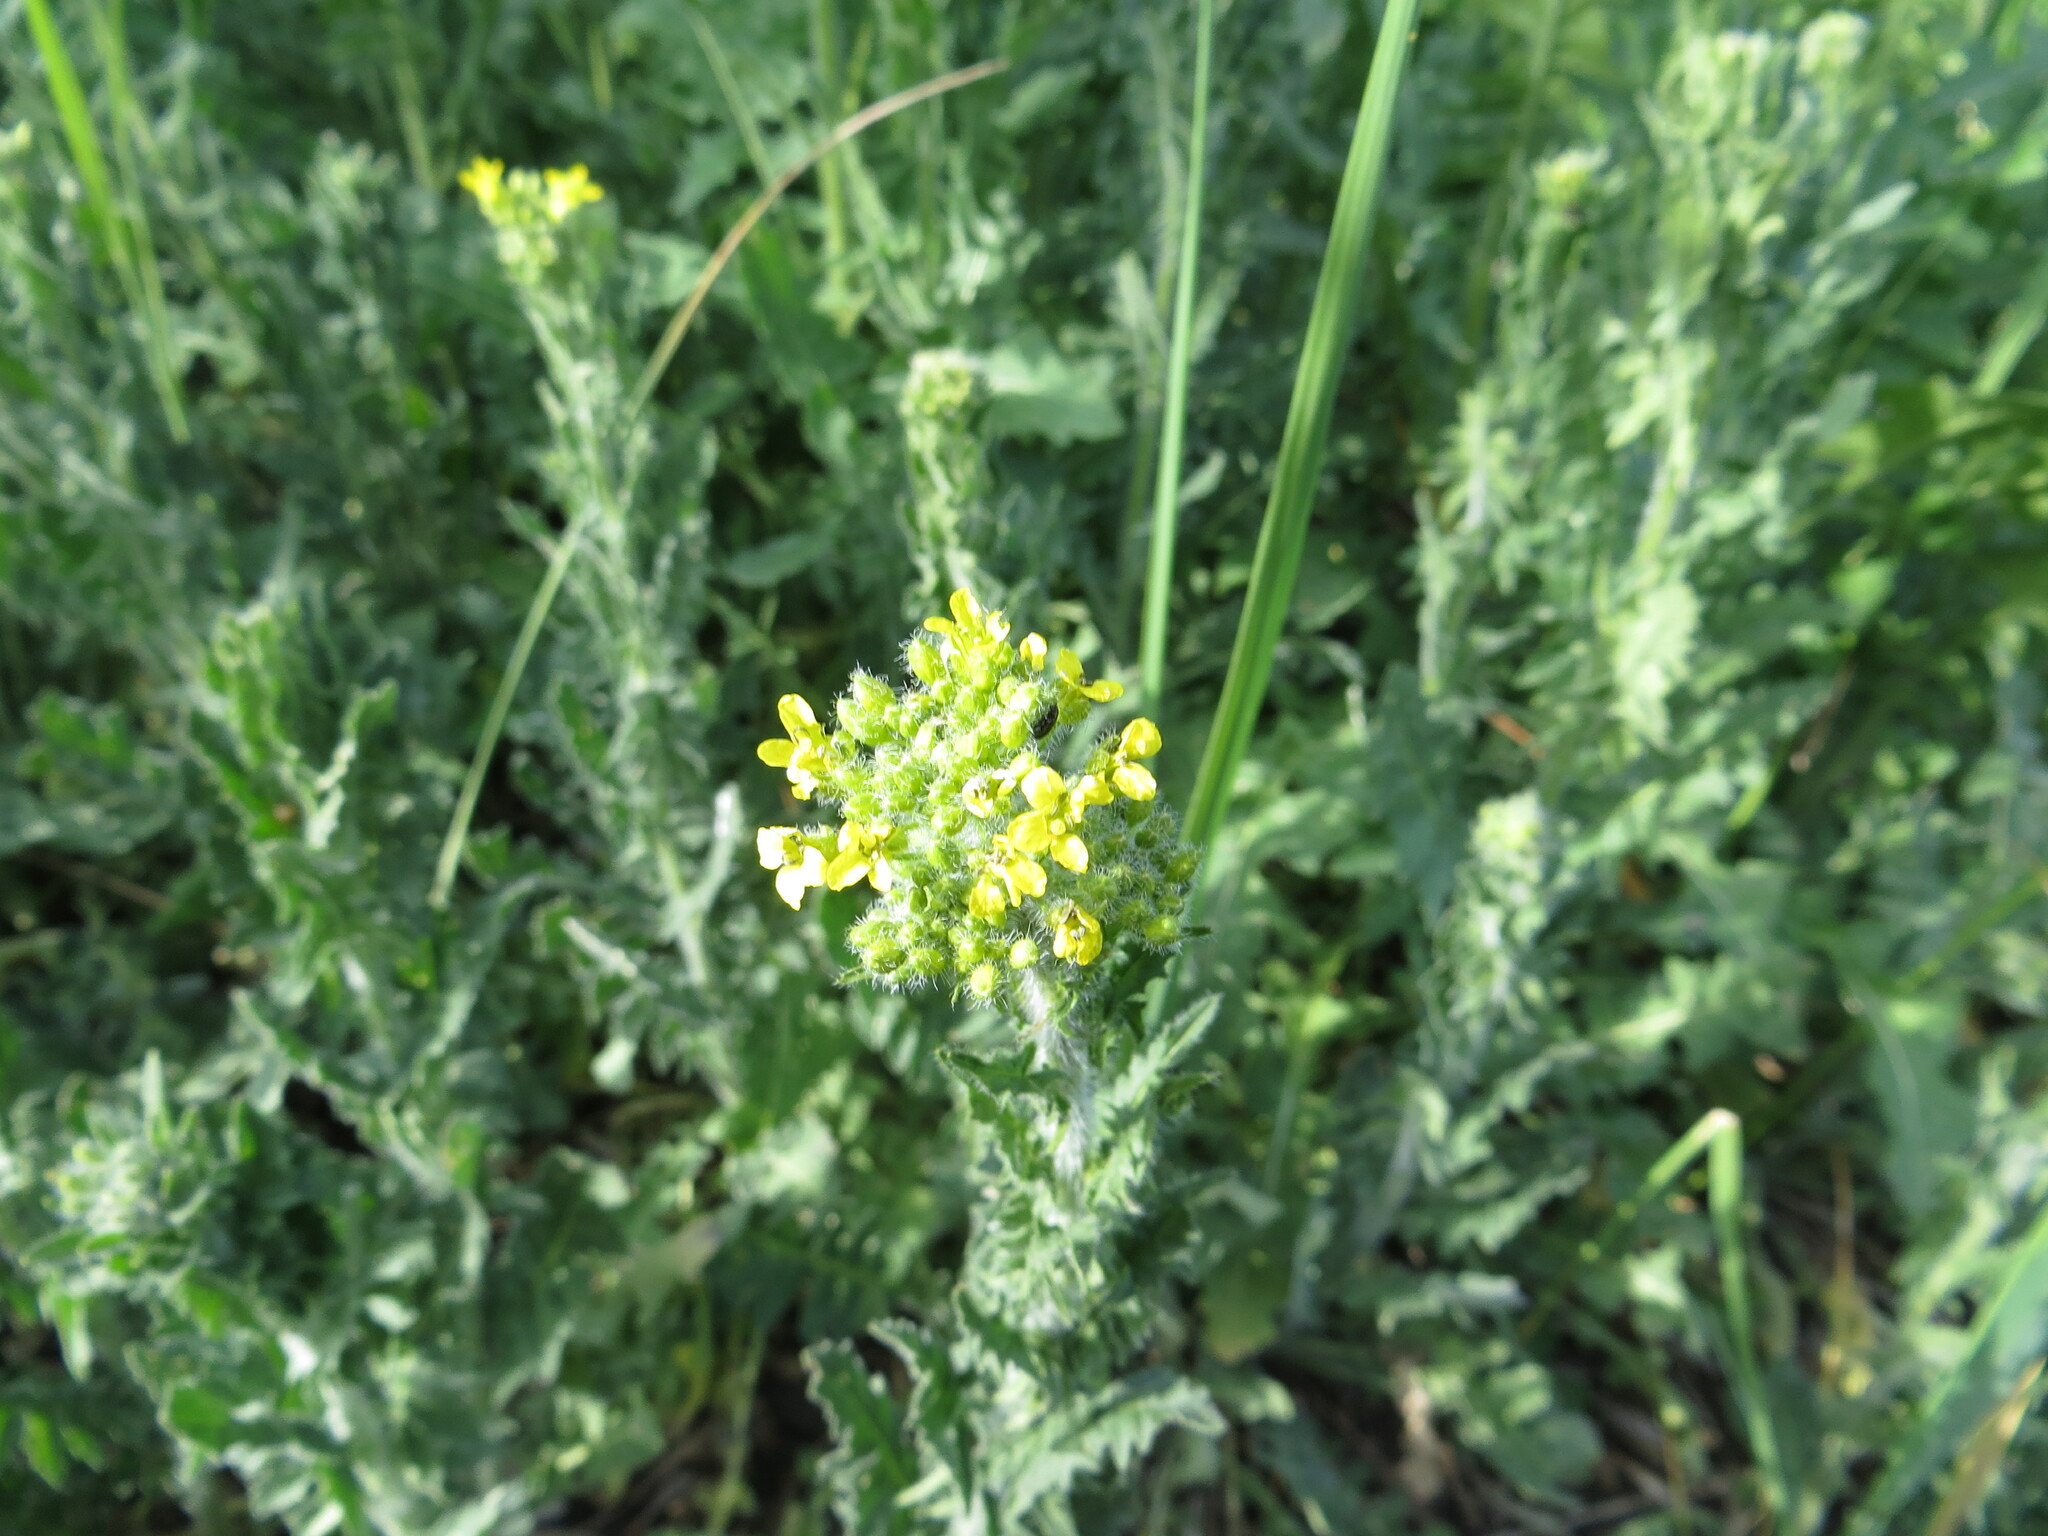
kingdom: Plantae
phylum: Tracheophyta
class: Magnoliopsida
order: Brassicales
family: Brassicaceae
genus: Sisymbrium
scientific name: Sisymbrium loeselii
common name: False london-rocket
